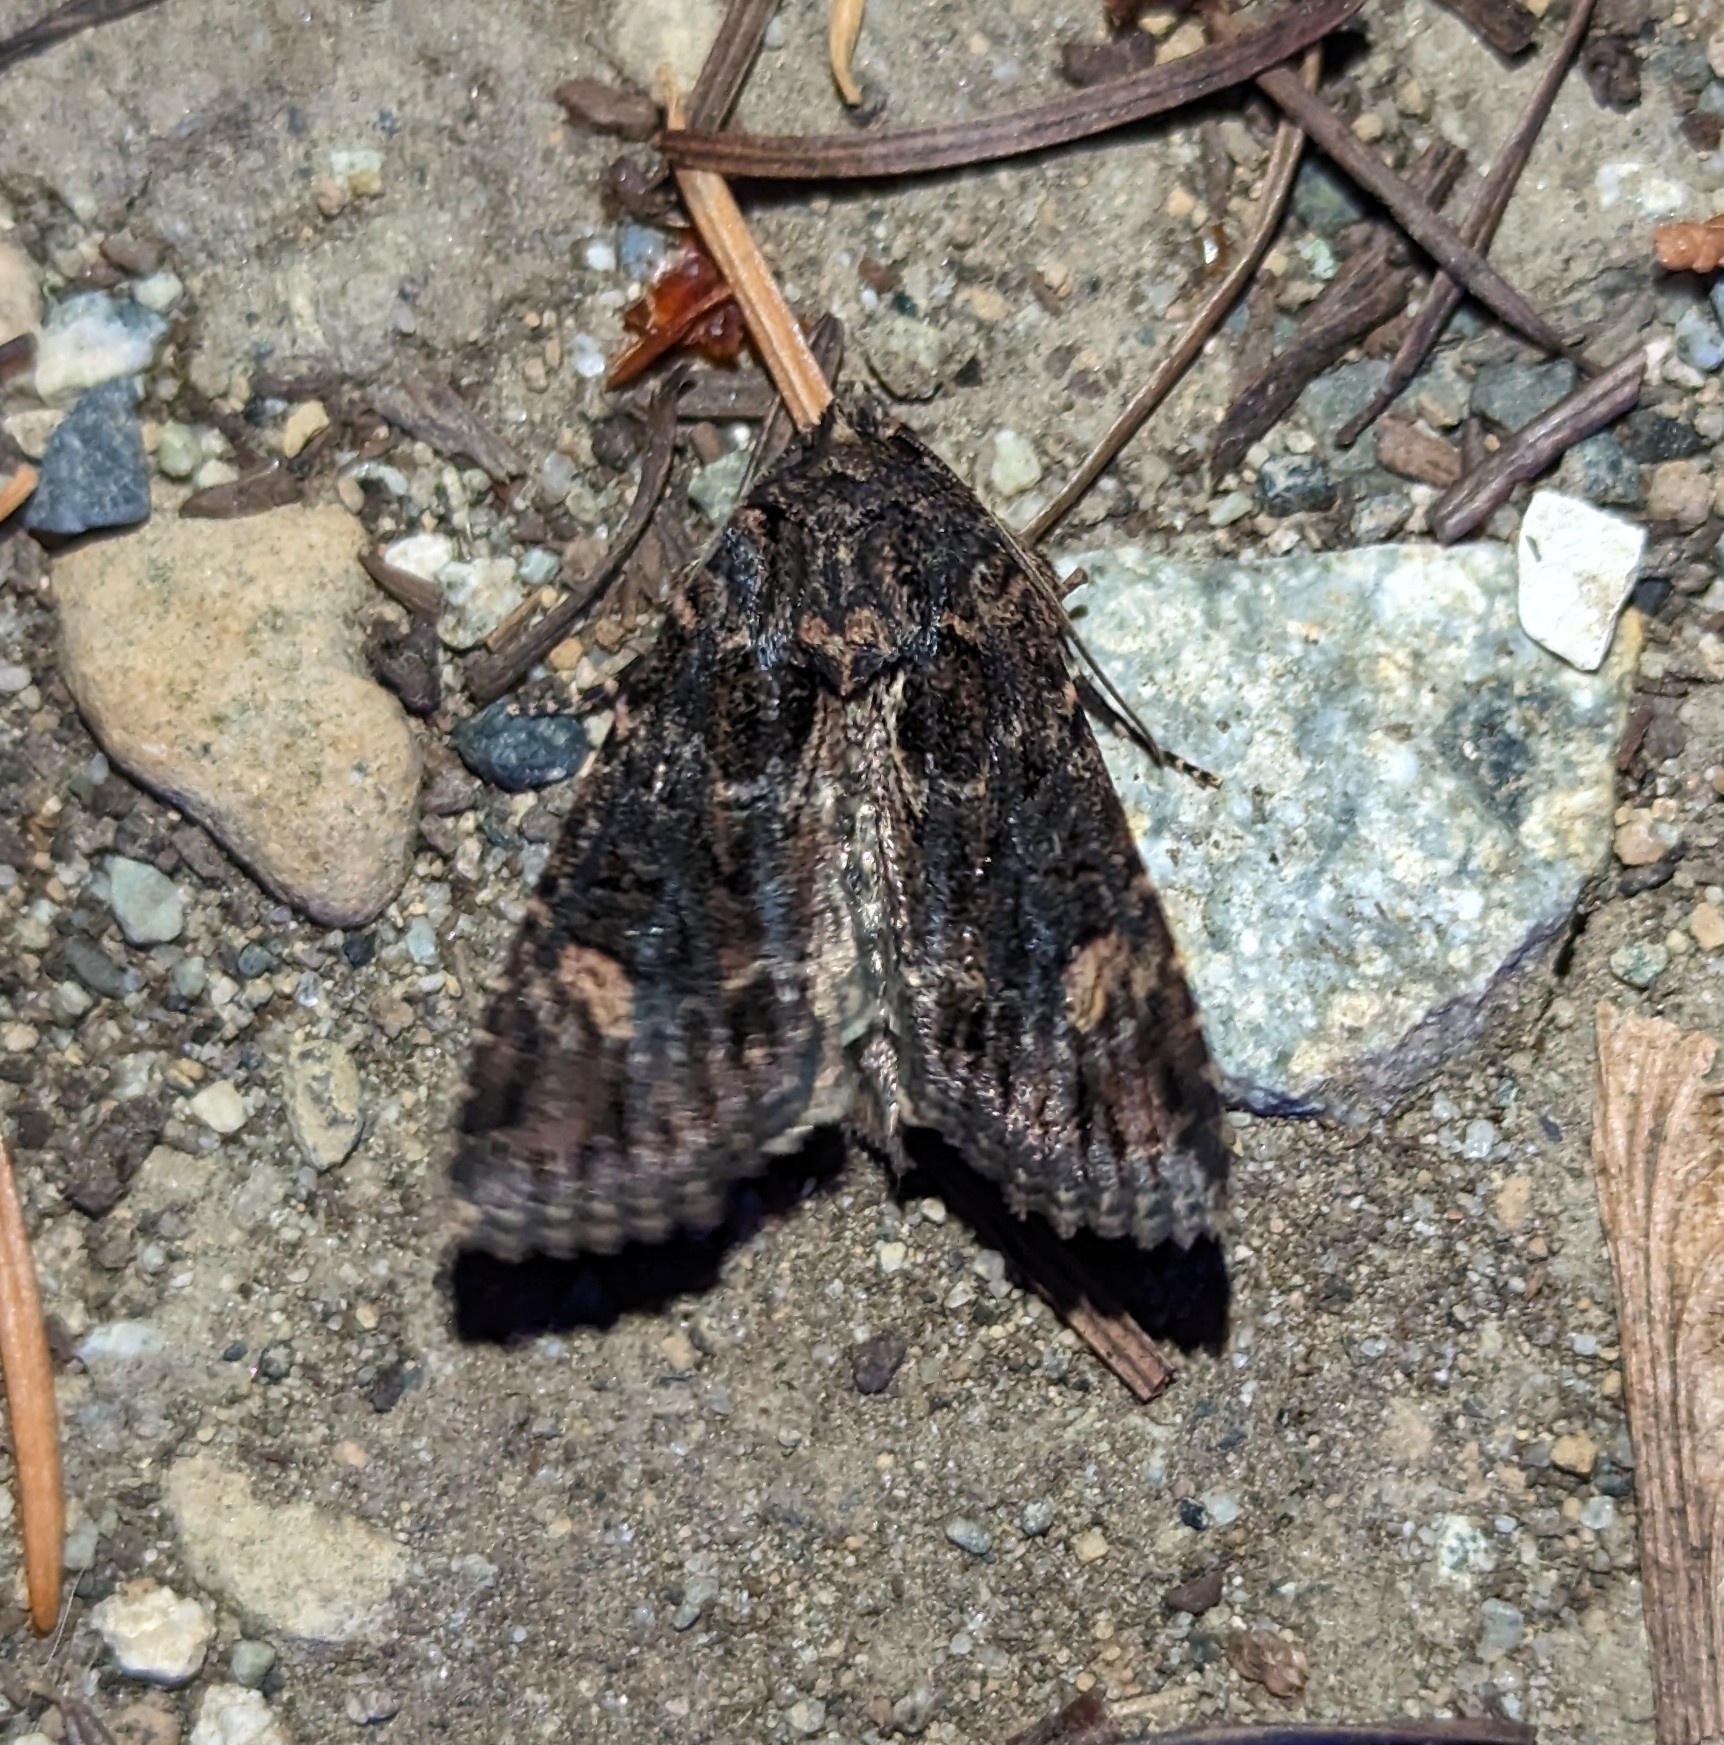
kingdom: Animalia
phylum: Arthropoda
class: Insecta
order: Lepidoptera
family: Noctuidae
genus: Aseptis
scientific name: Aseptis binotata
